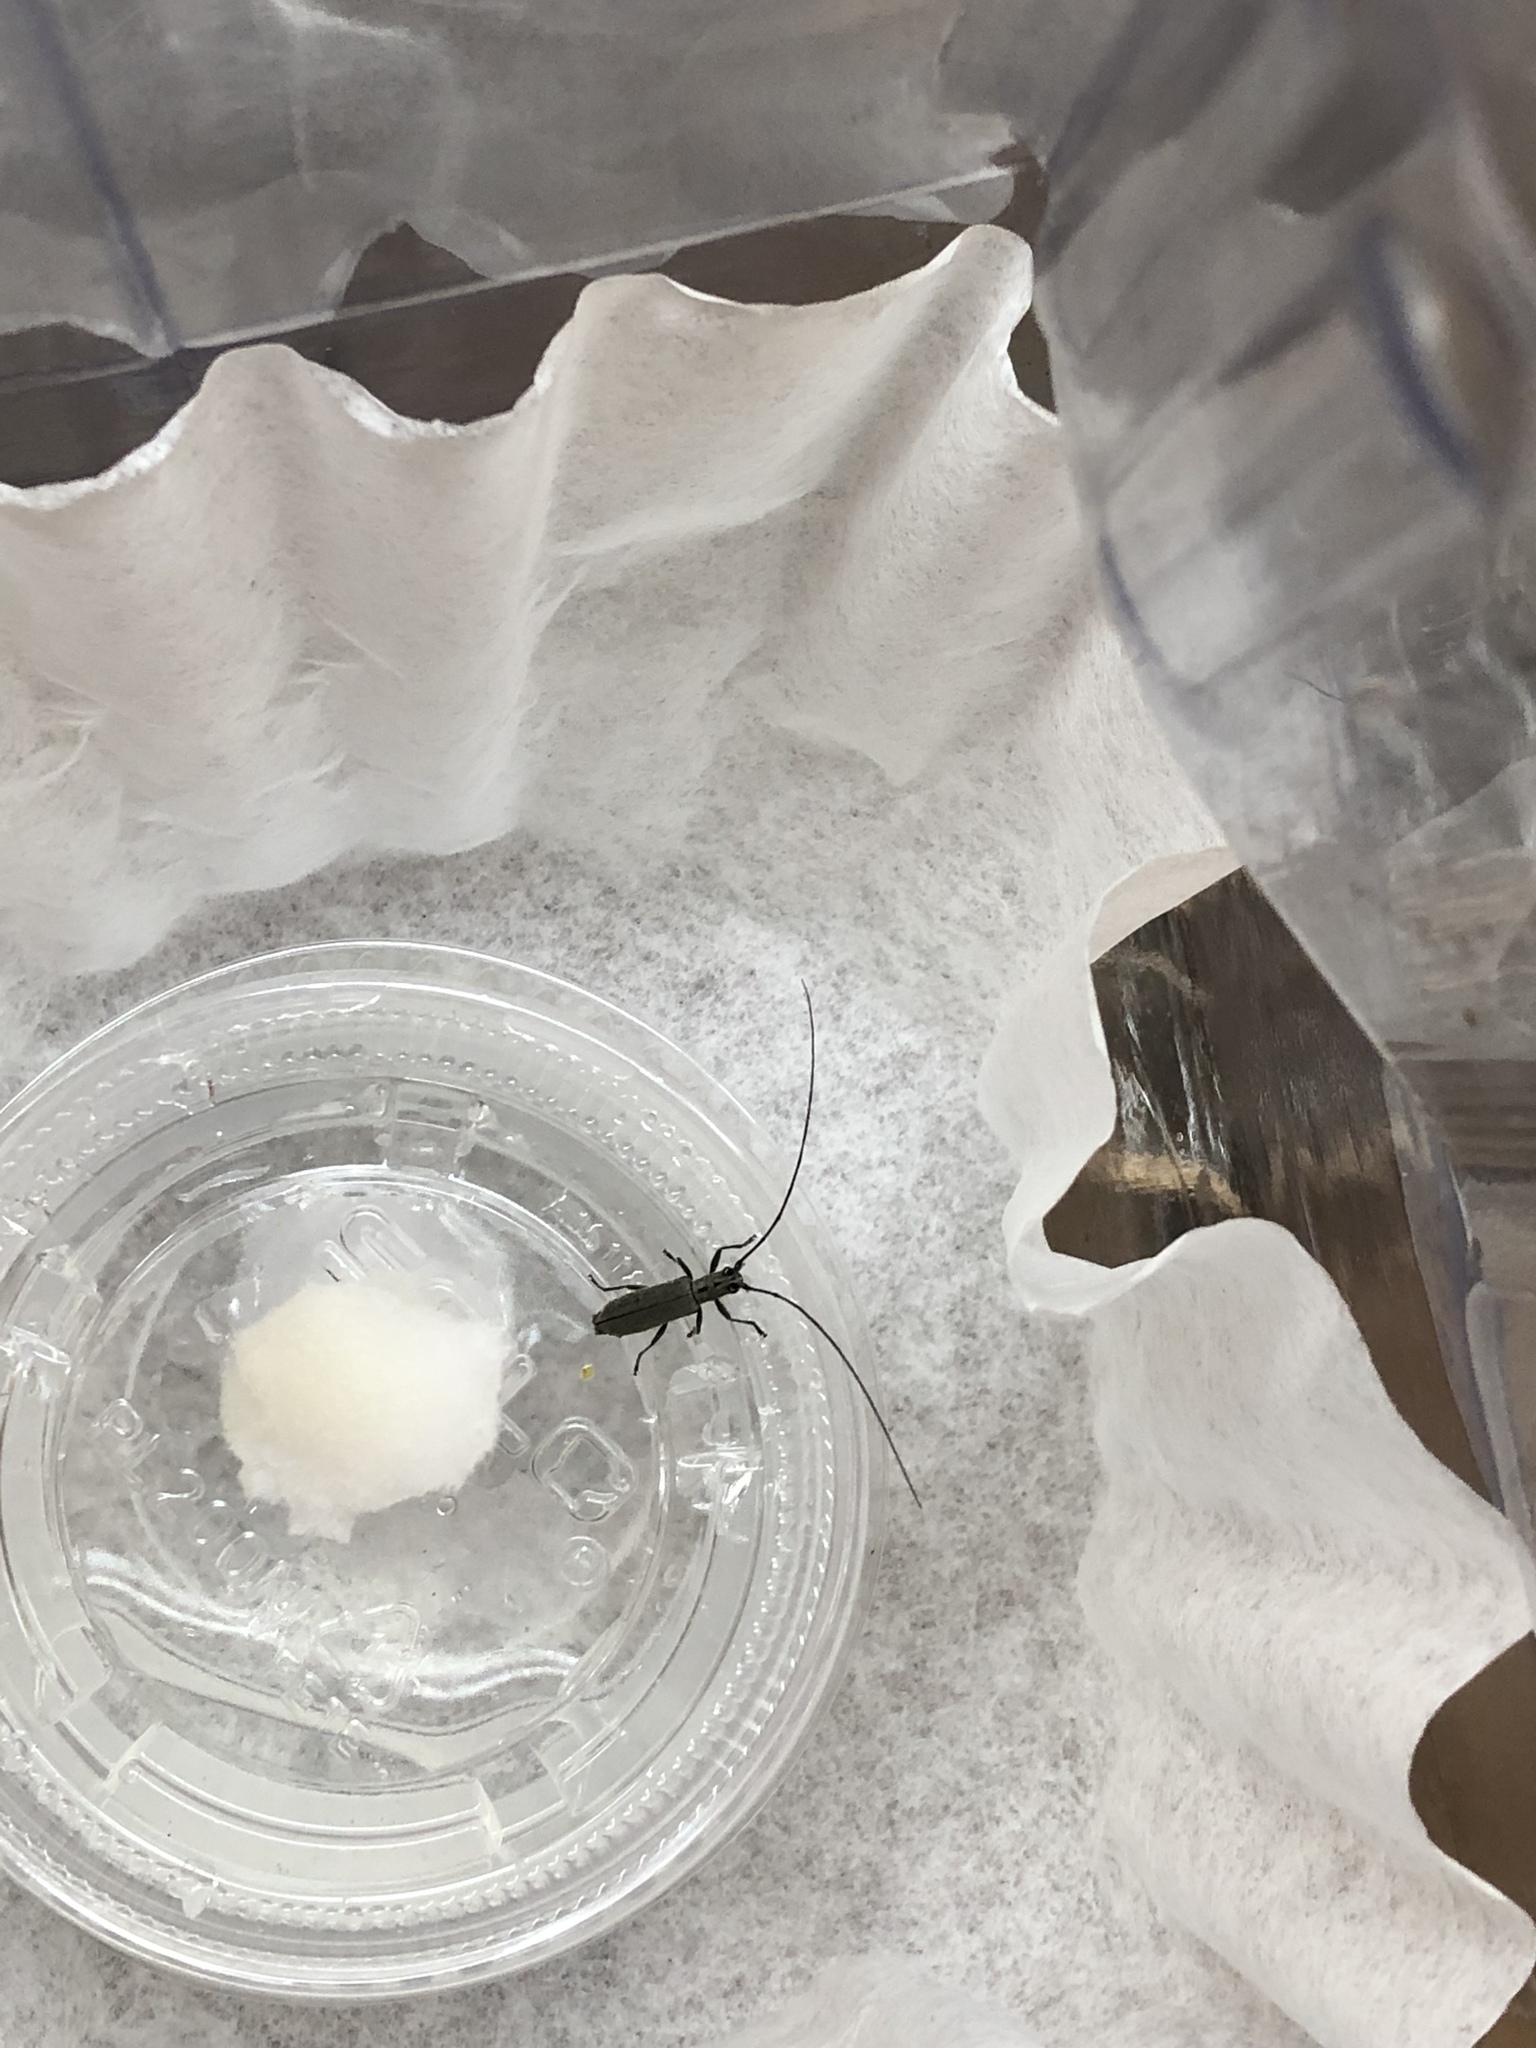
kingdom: Animalia
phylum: Arthropoda
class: Insecta
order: Coleoptera
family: Cerambycidae
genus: Dorcaschema
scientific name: Dorcaschema cinereum
